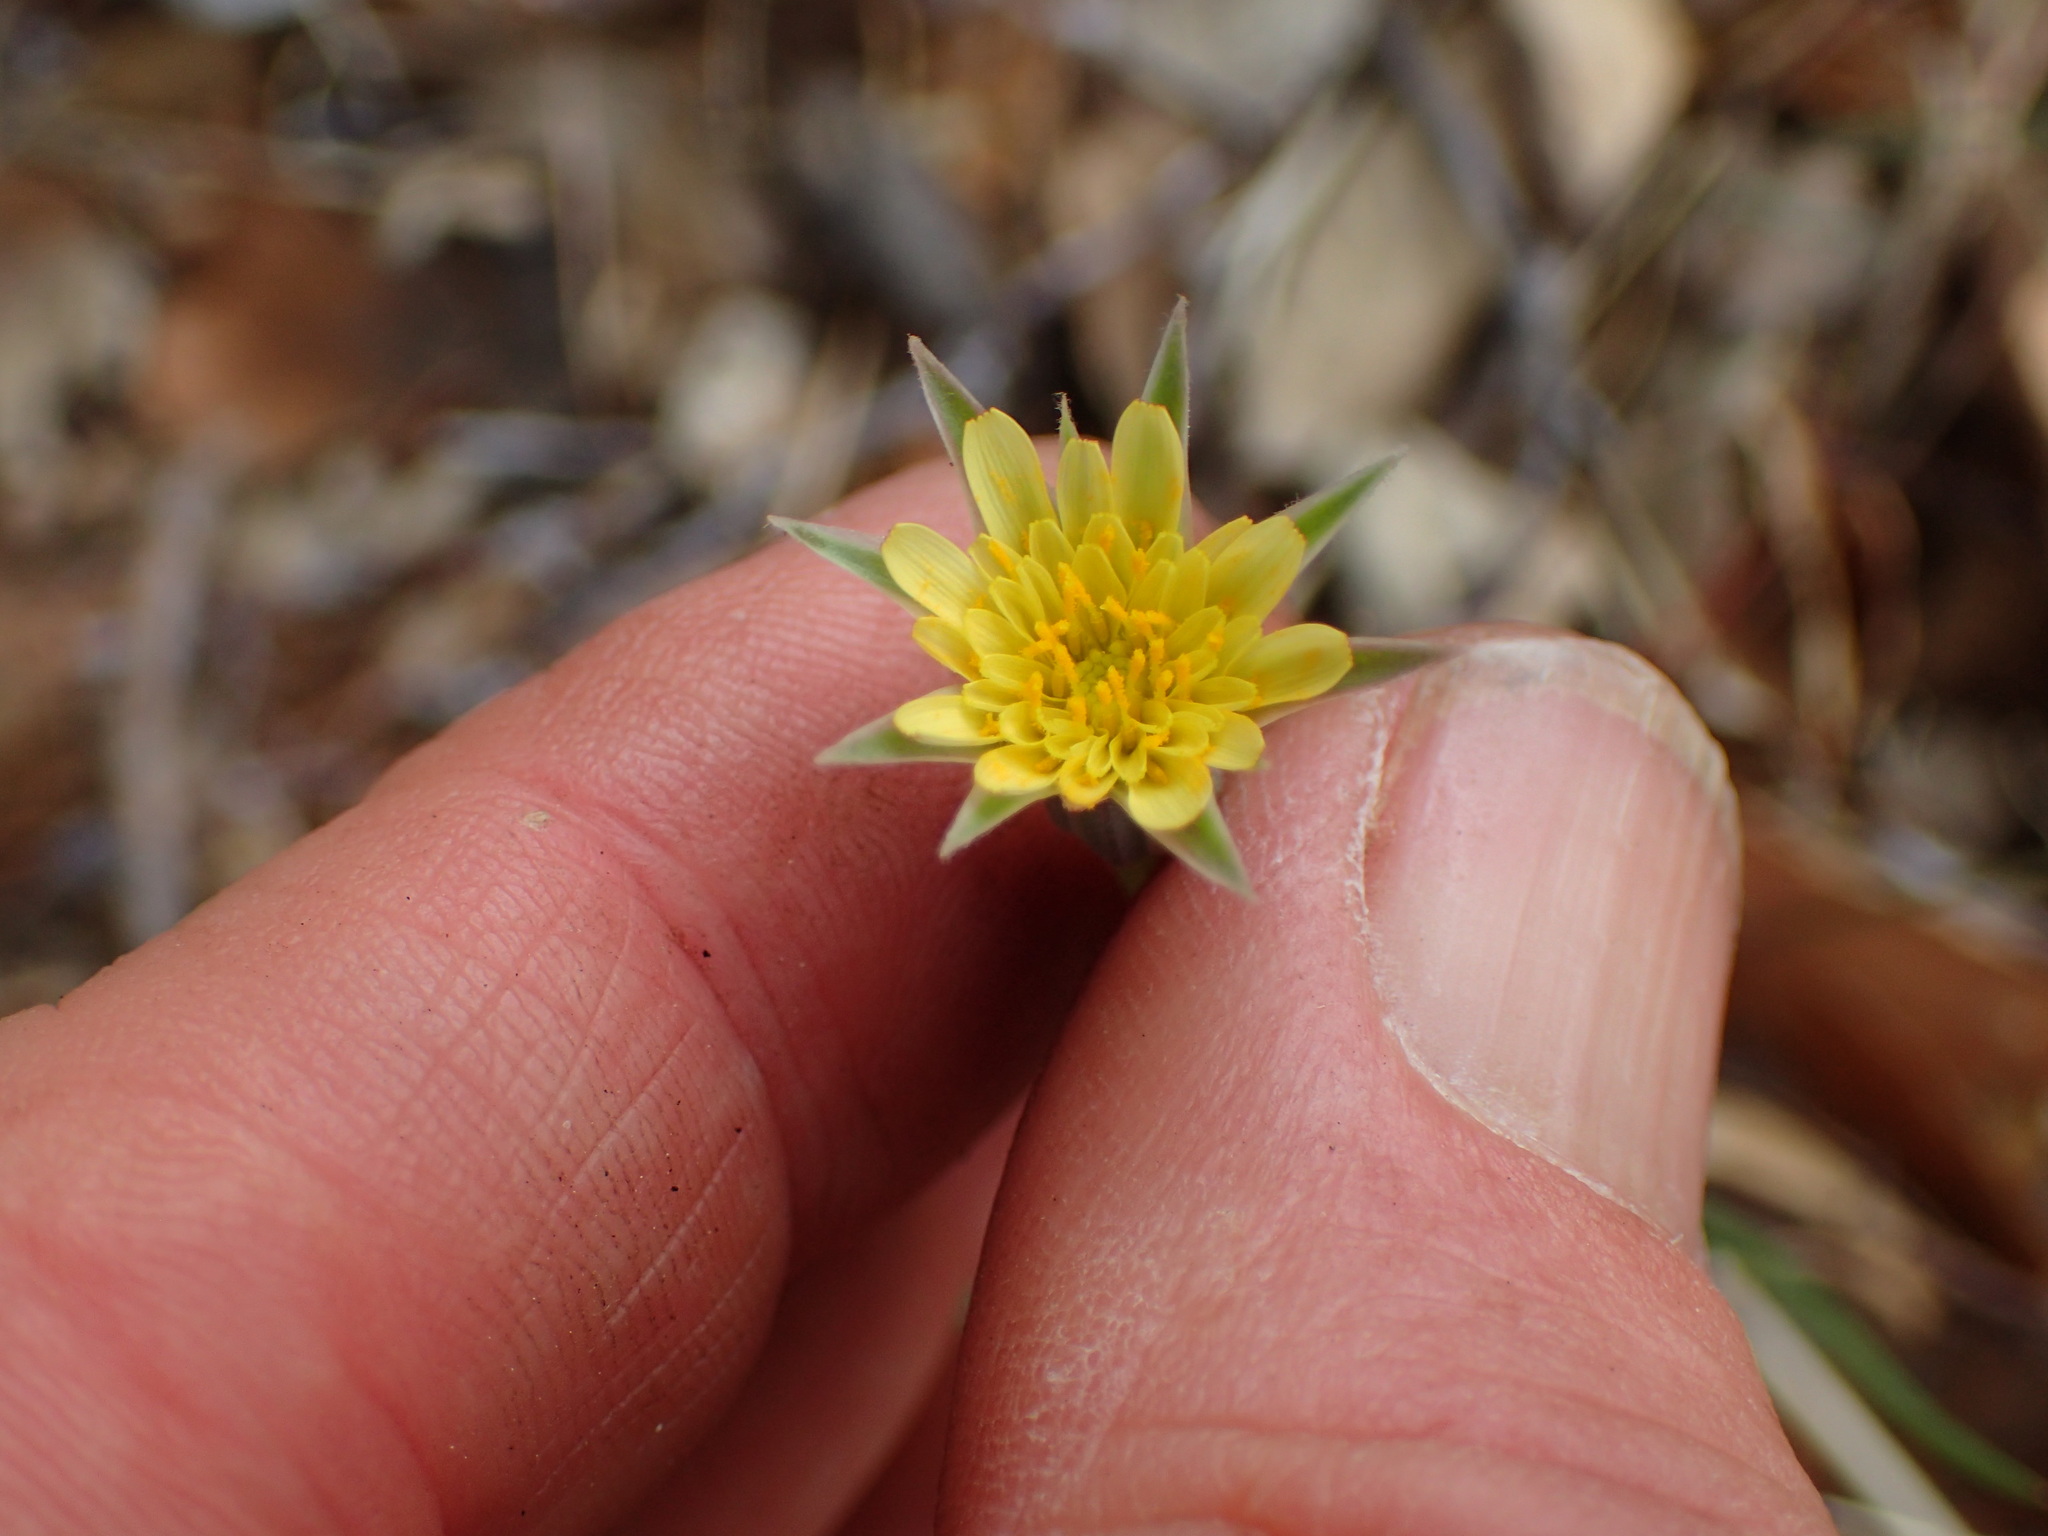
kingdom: Plantae
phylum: Tracheophyta
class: Magnoliopsida
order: Asterales
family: Asteraceae
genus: Microseris
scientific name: Microseris lindleyi
